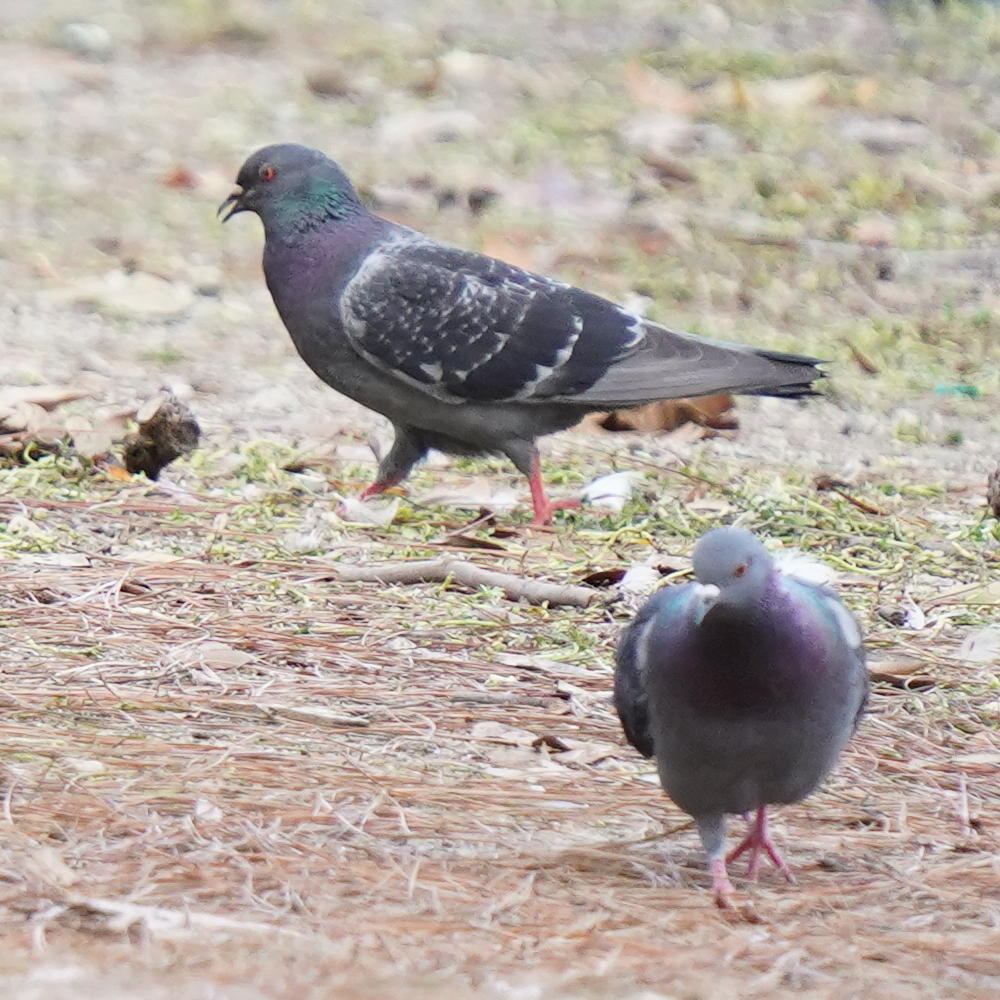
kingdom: Animalia
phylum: Chordata
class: Aves
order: Columbiformes
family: Columbidae
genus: Columba
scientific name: Columba livia
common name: Rock pigeon
